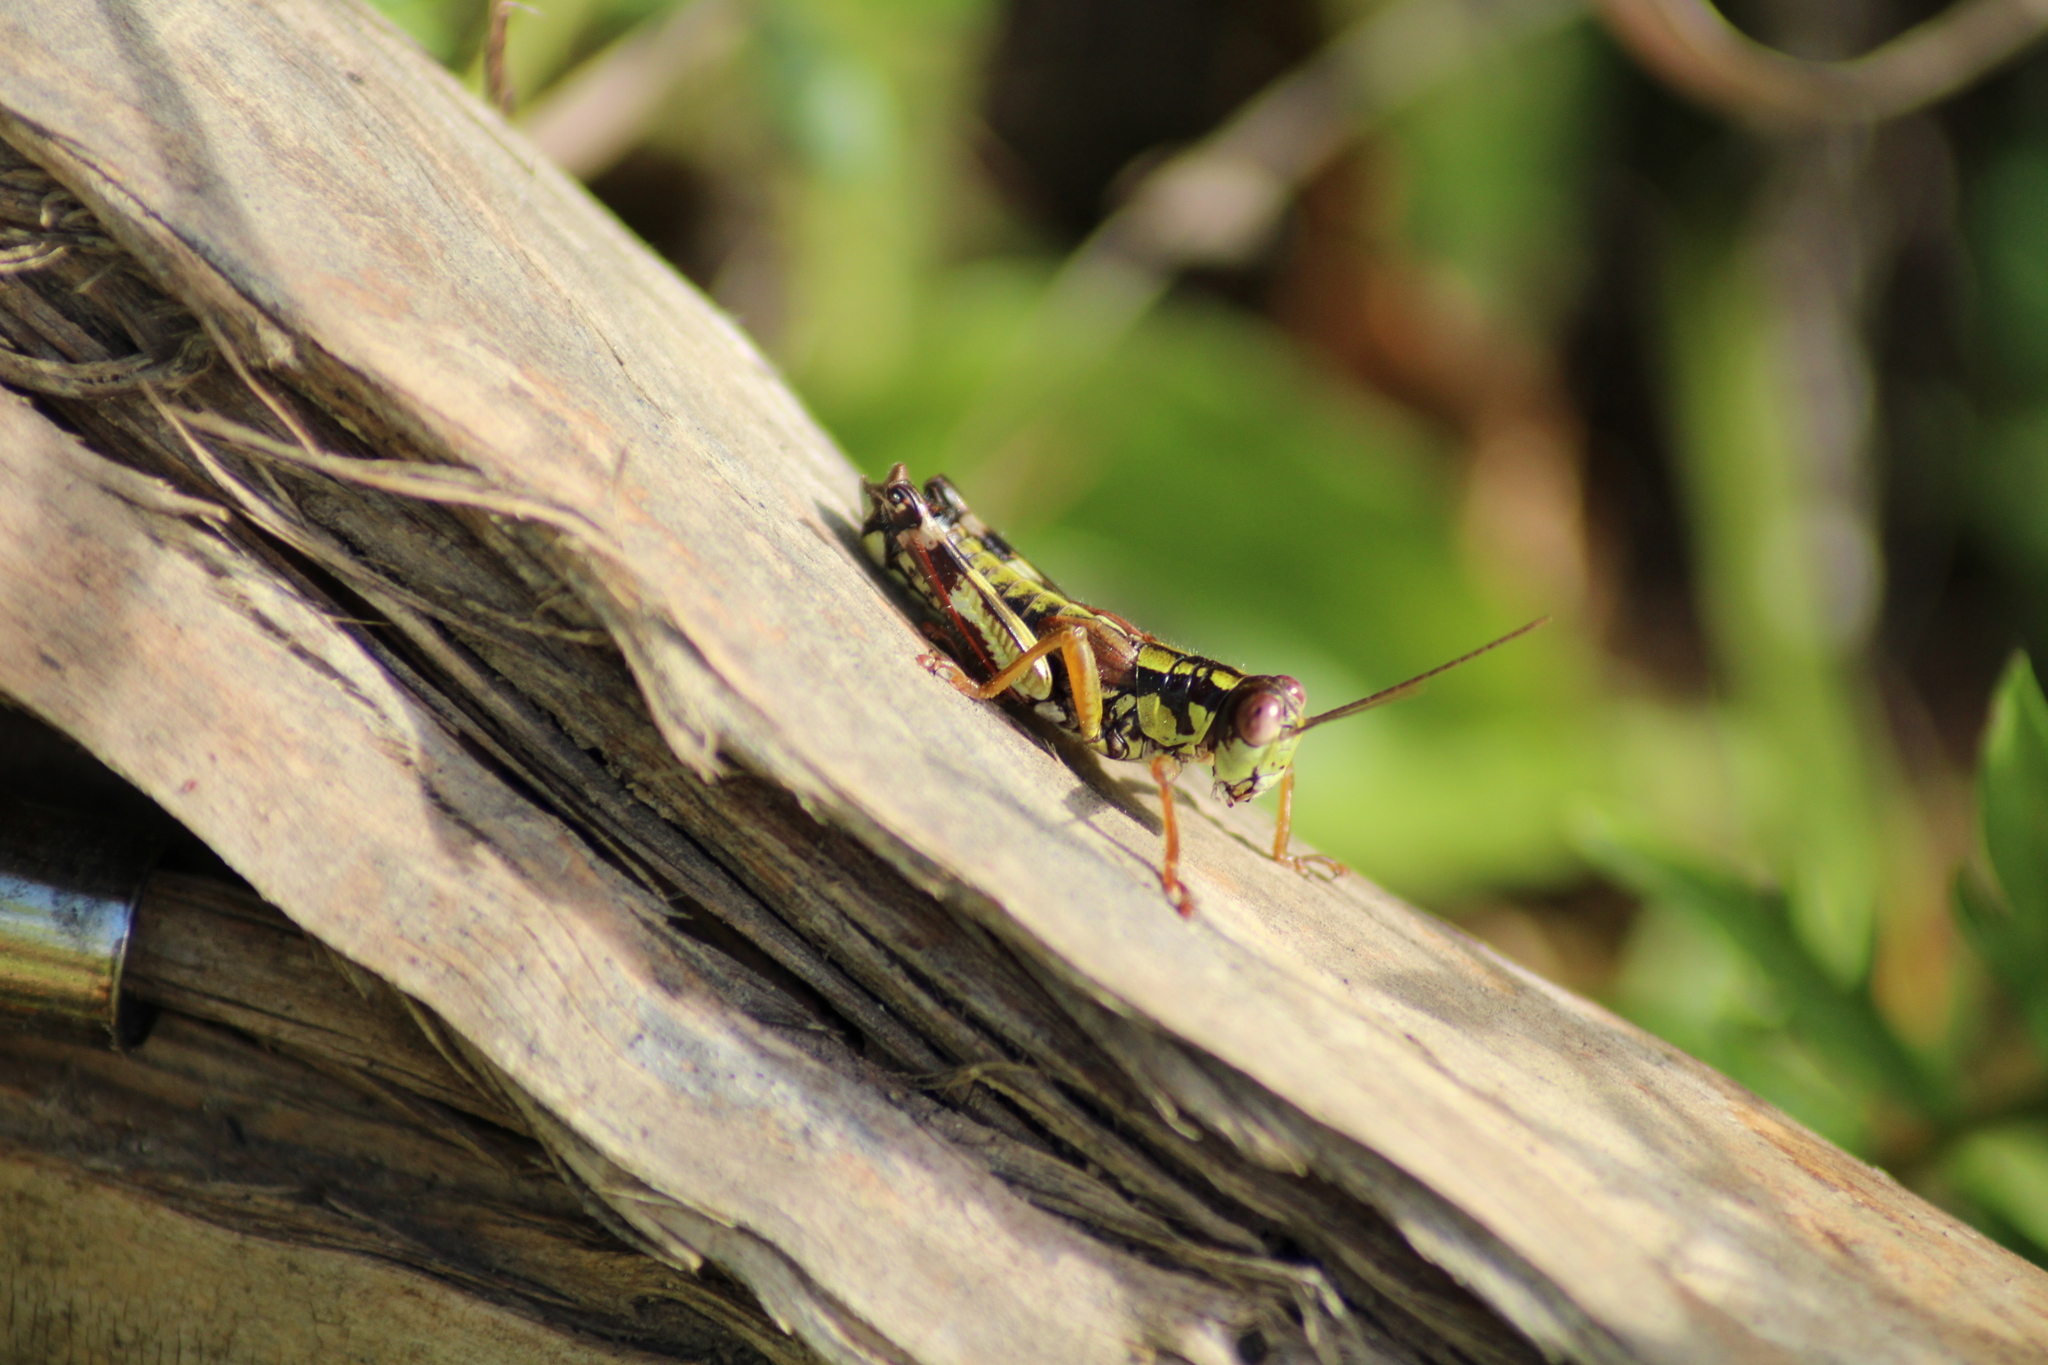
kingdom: Animalia
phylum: Arthropoda
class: Insecta
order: Orthoptera
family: Acrididae
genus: Miramella
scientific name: Miramella alpina
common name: Green mountain grasshopper
